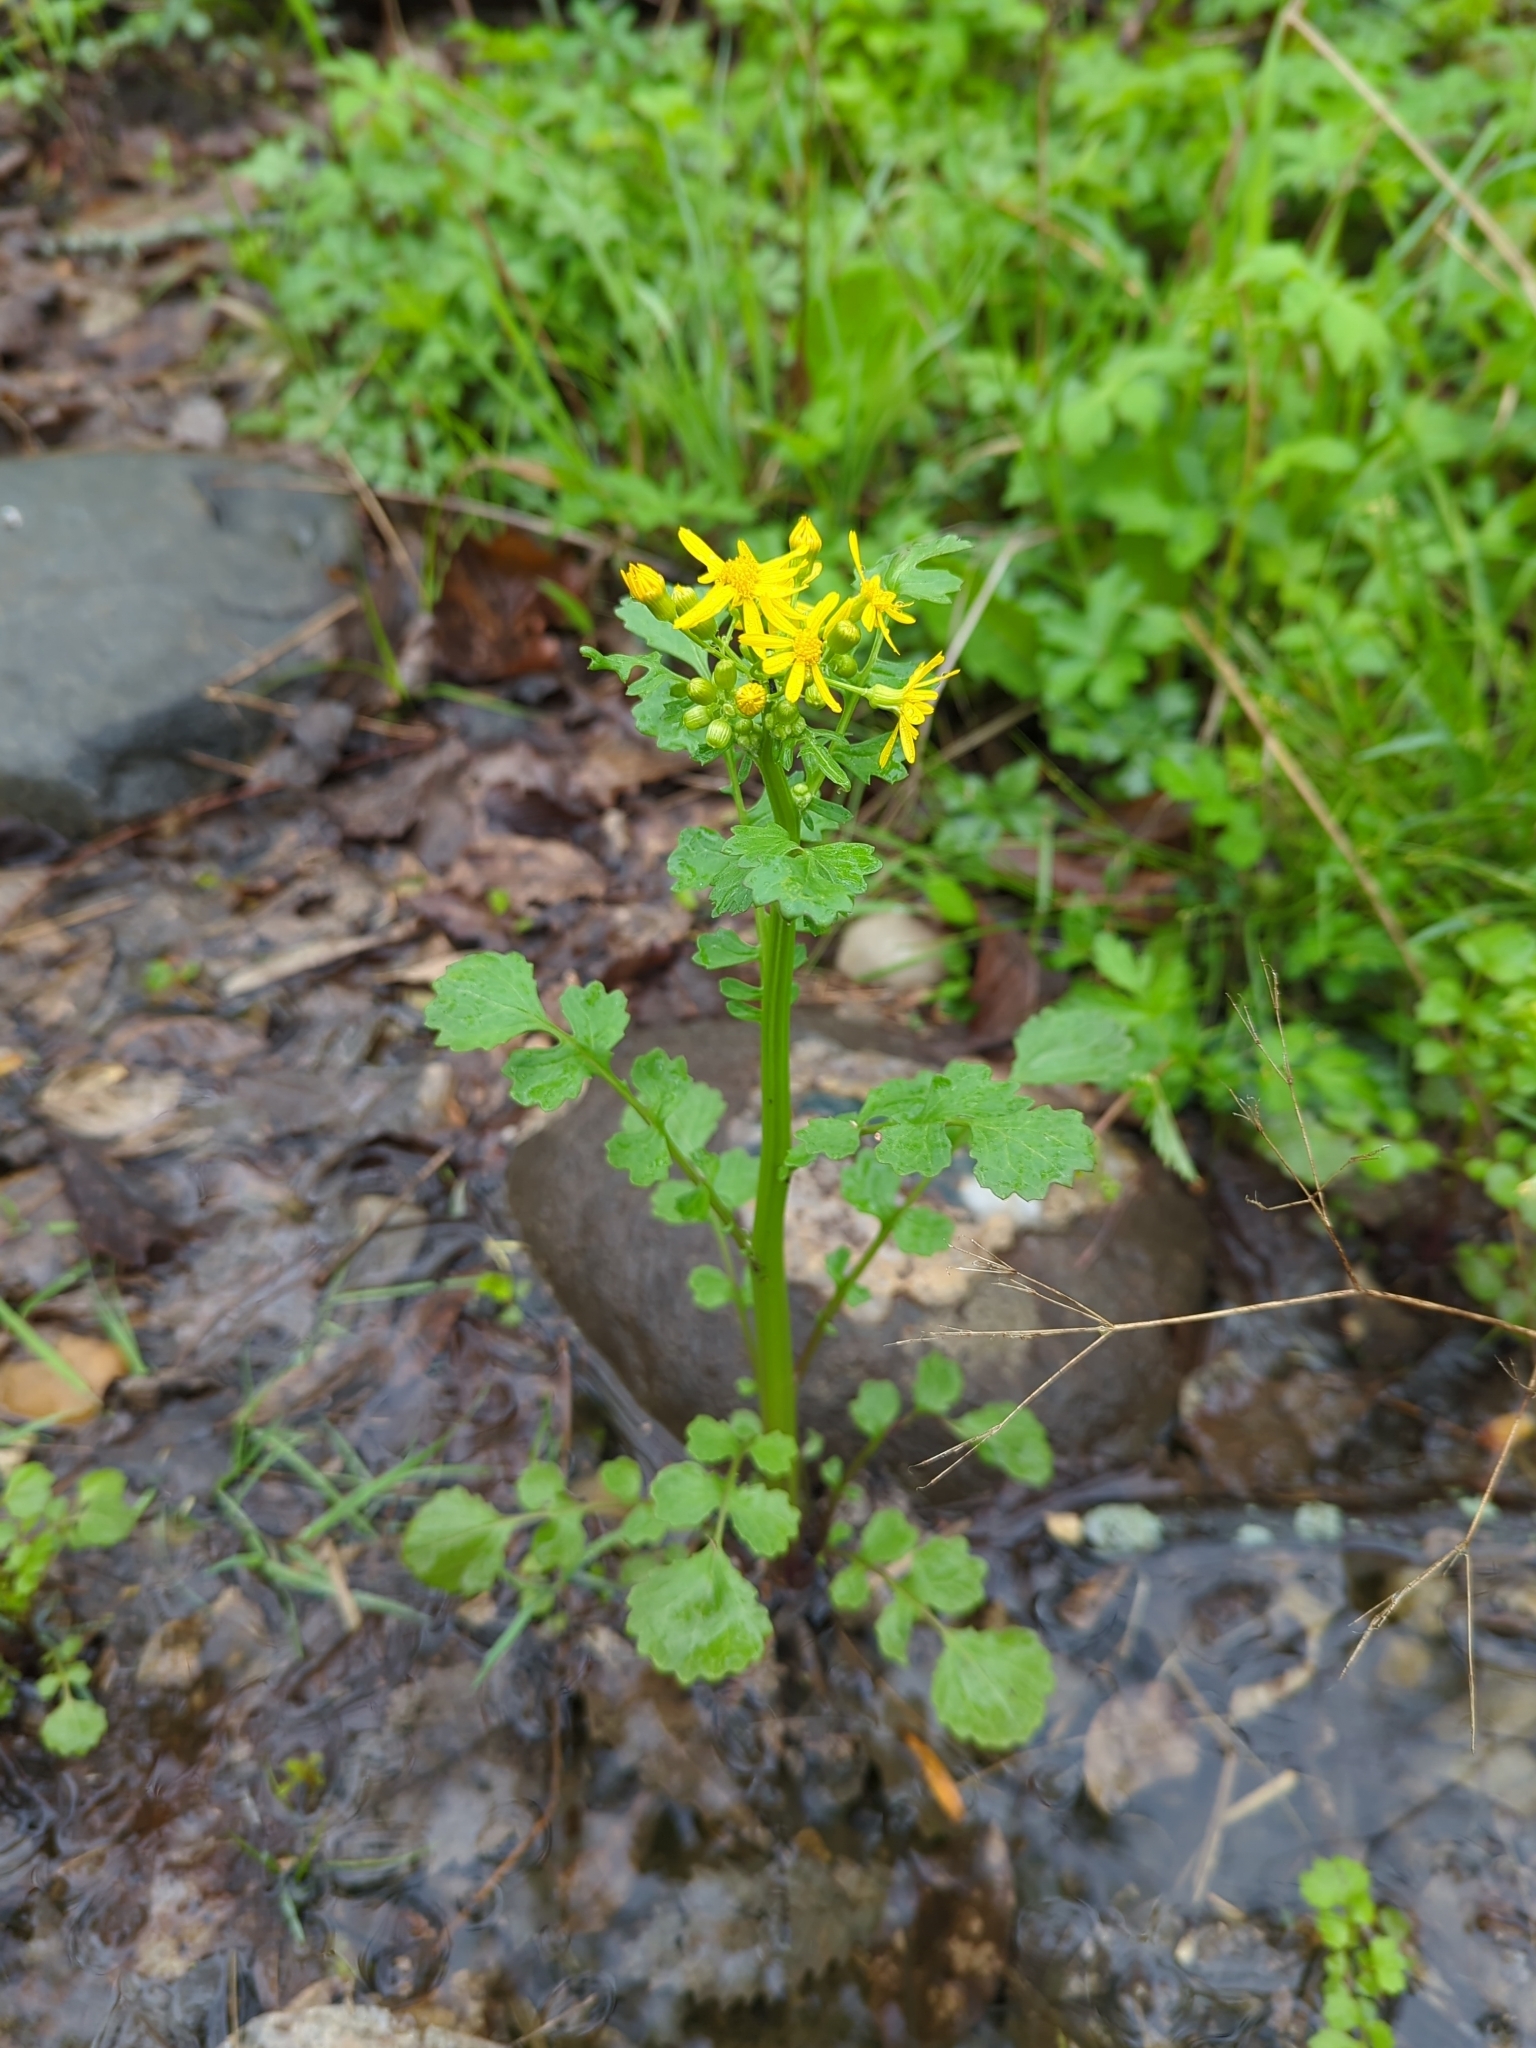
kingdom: Plantae
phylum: Tracheophyta
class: Magnoliopsida
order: Asterales
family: Asteraceae
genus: Packera
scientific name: Packera glabella
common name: Butterweed
